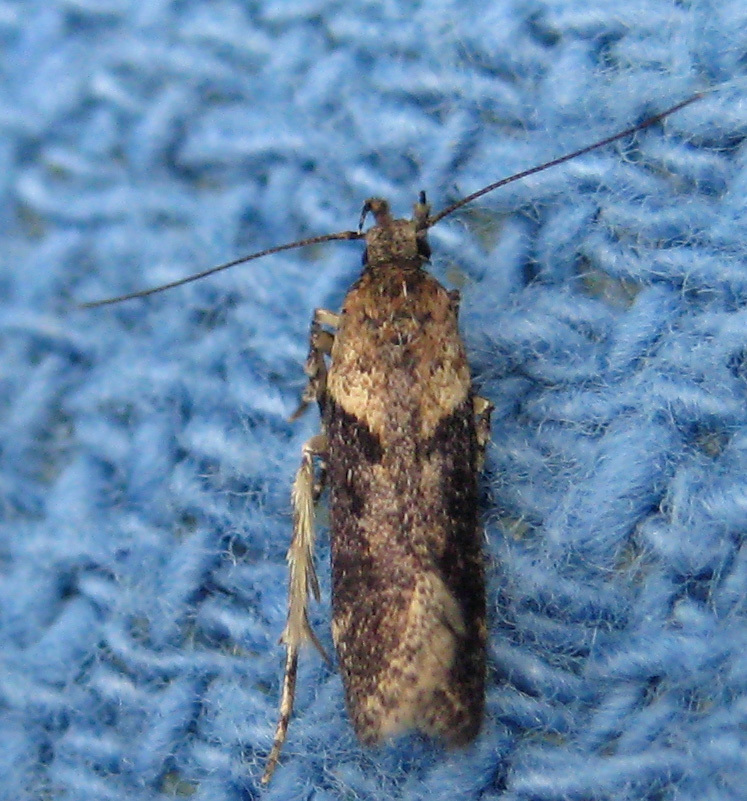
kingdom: Animalia
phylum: Arthropoda
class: Insecta
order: Lepidoptera
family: Gelechiidae
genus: Chionodes
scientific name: Chionodes mediofuscella
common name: Black-smudged chionodes moth
